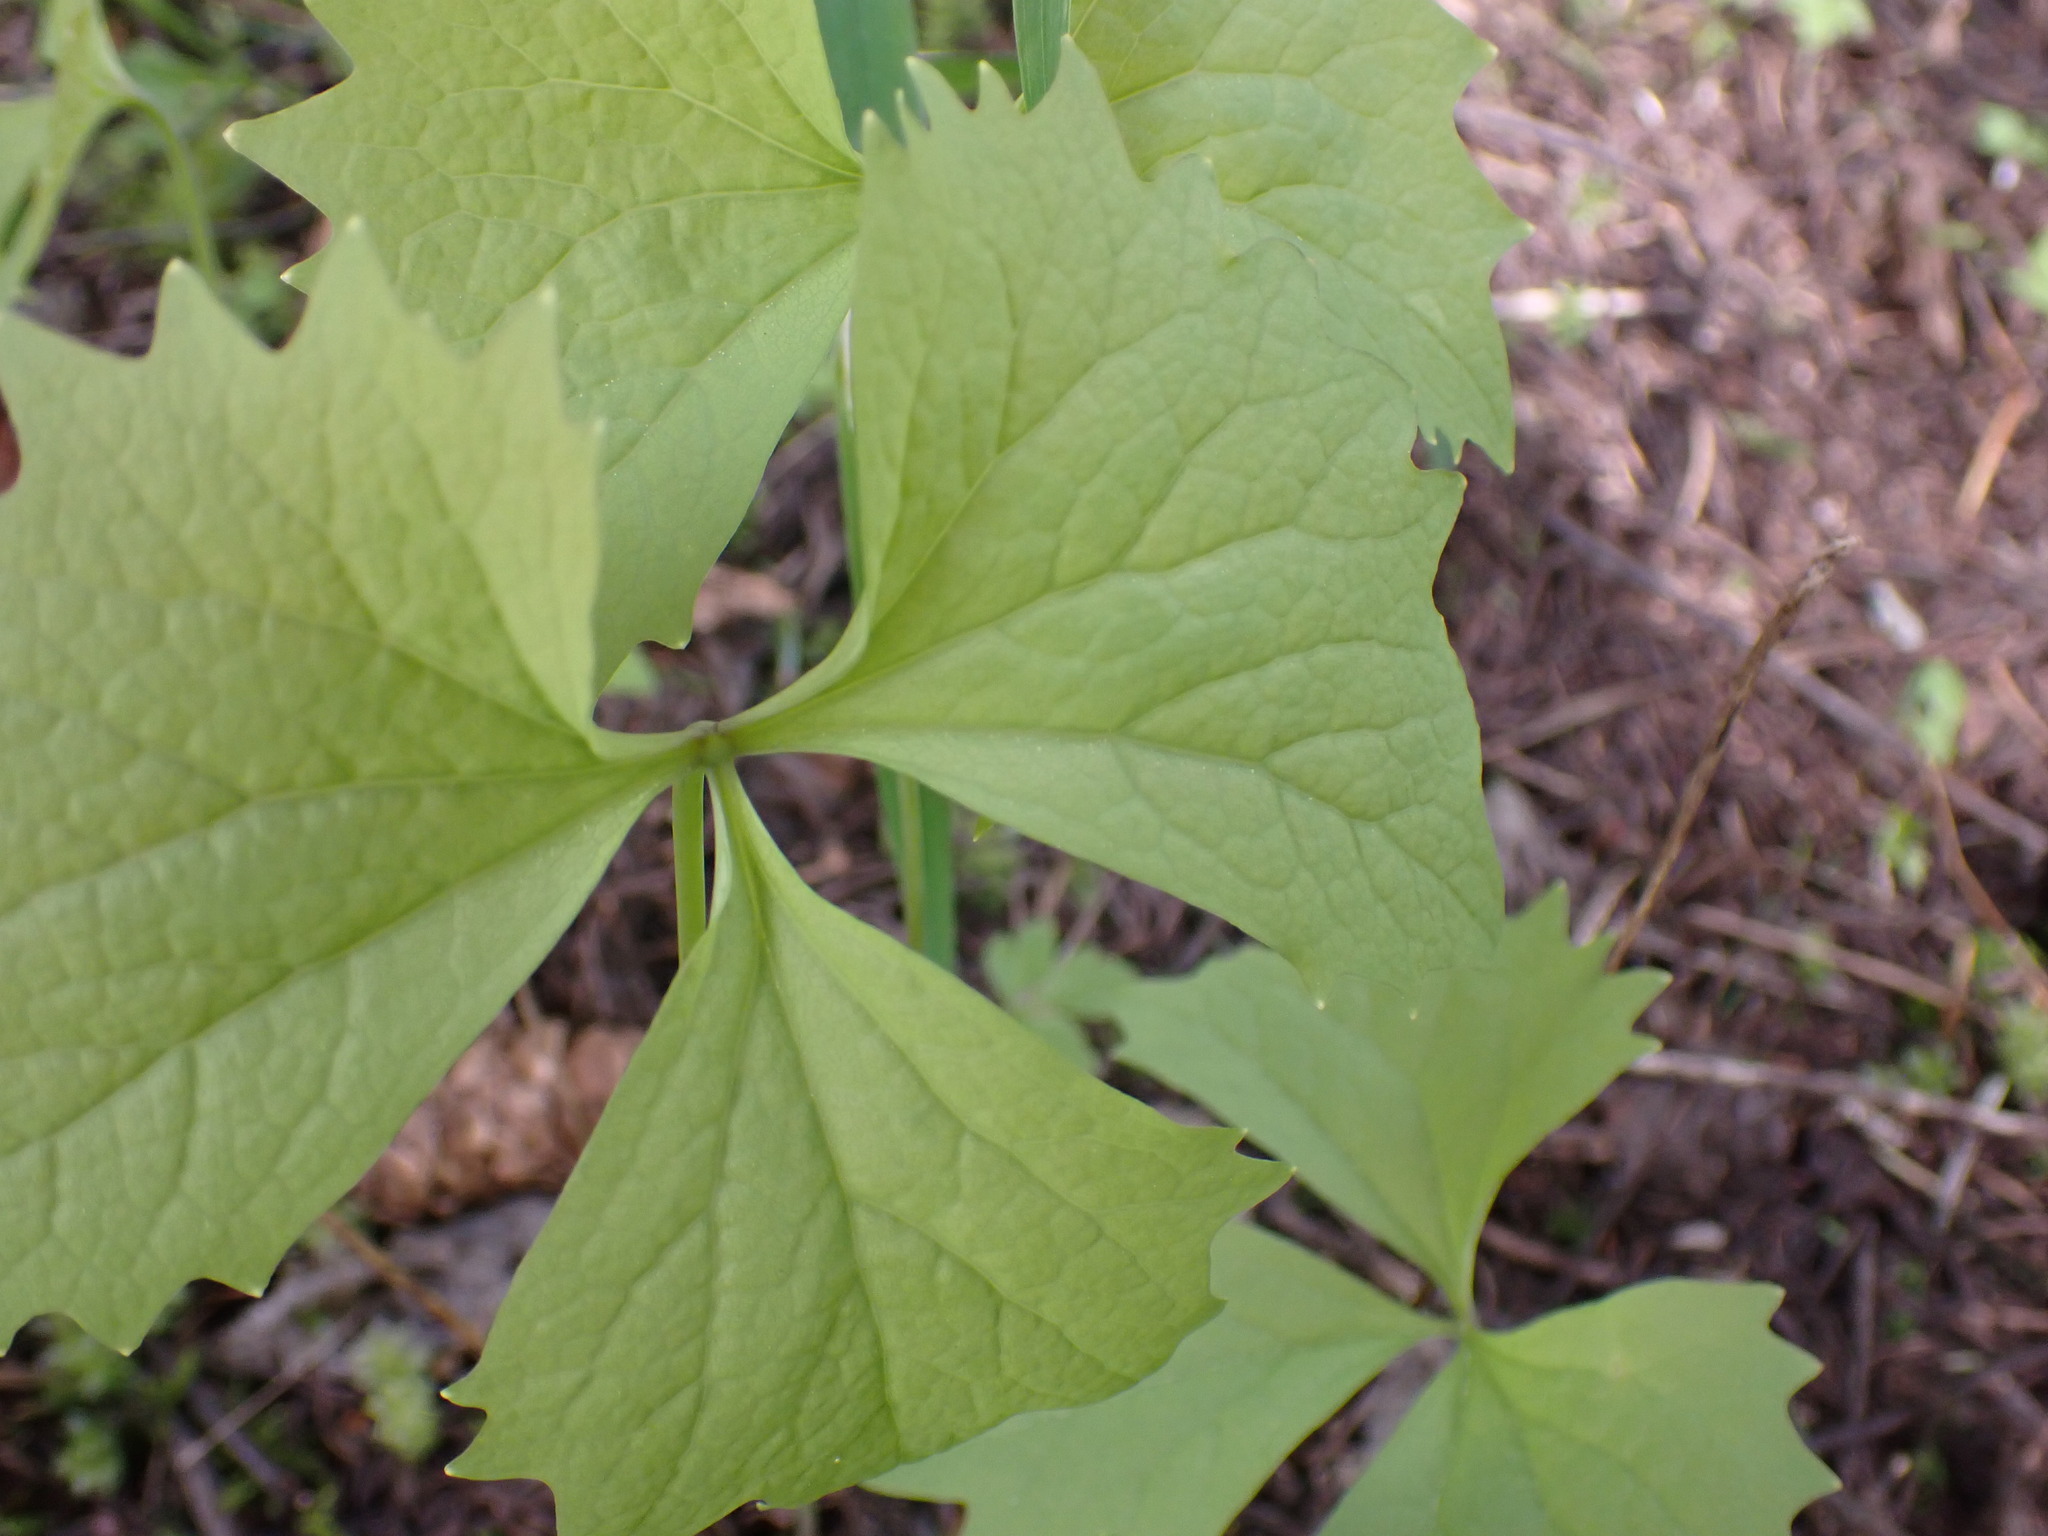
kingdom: Plantae
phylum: Tracheophyta
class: Magnoliopsida
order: Ranunculales
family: Berberidaceae
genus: Achlys
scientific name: Achlys triphylla
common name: Vanilla-leaf
